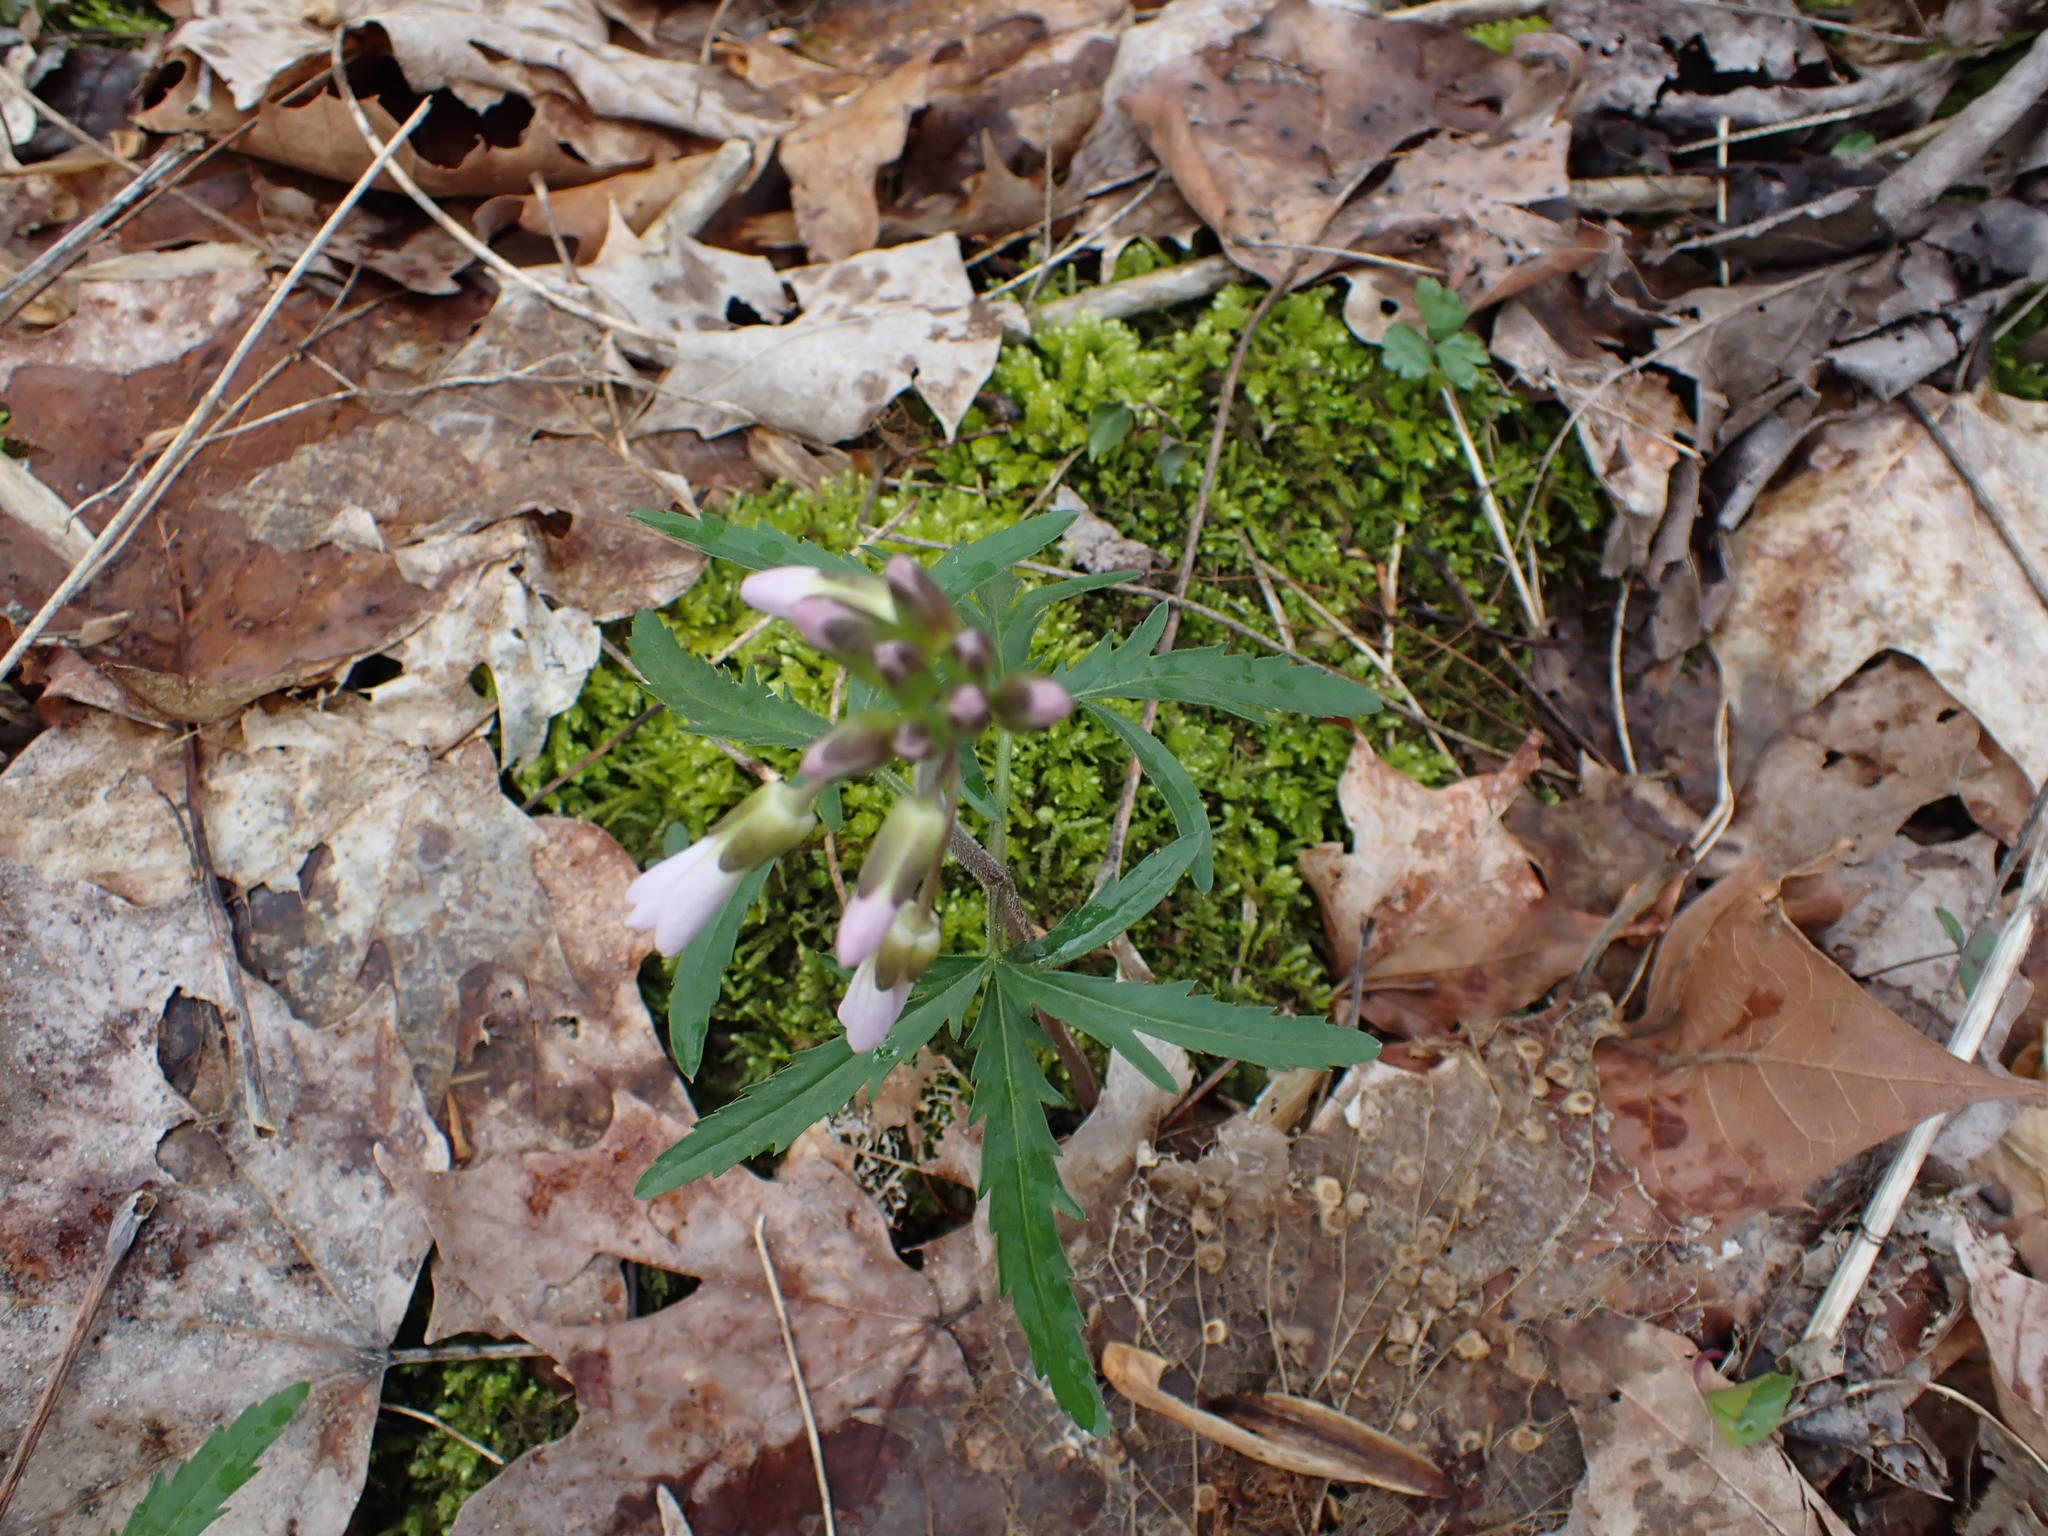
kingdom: Plantae
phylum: Tracheophyta
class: Magnoliopsida
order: Brassicales
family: Brassicaceae
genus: Cardamine
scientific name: Cardamine concatenata
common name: Cut-leaf toothcup
